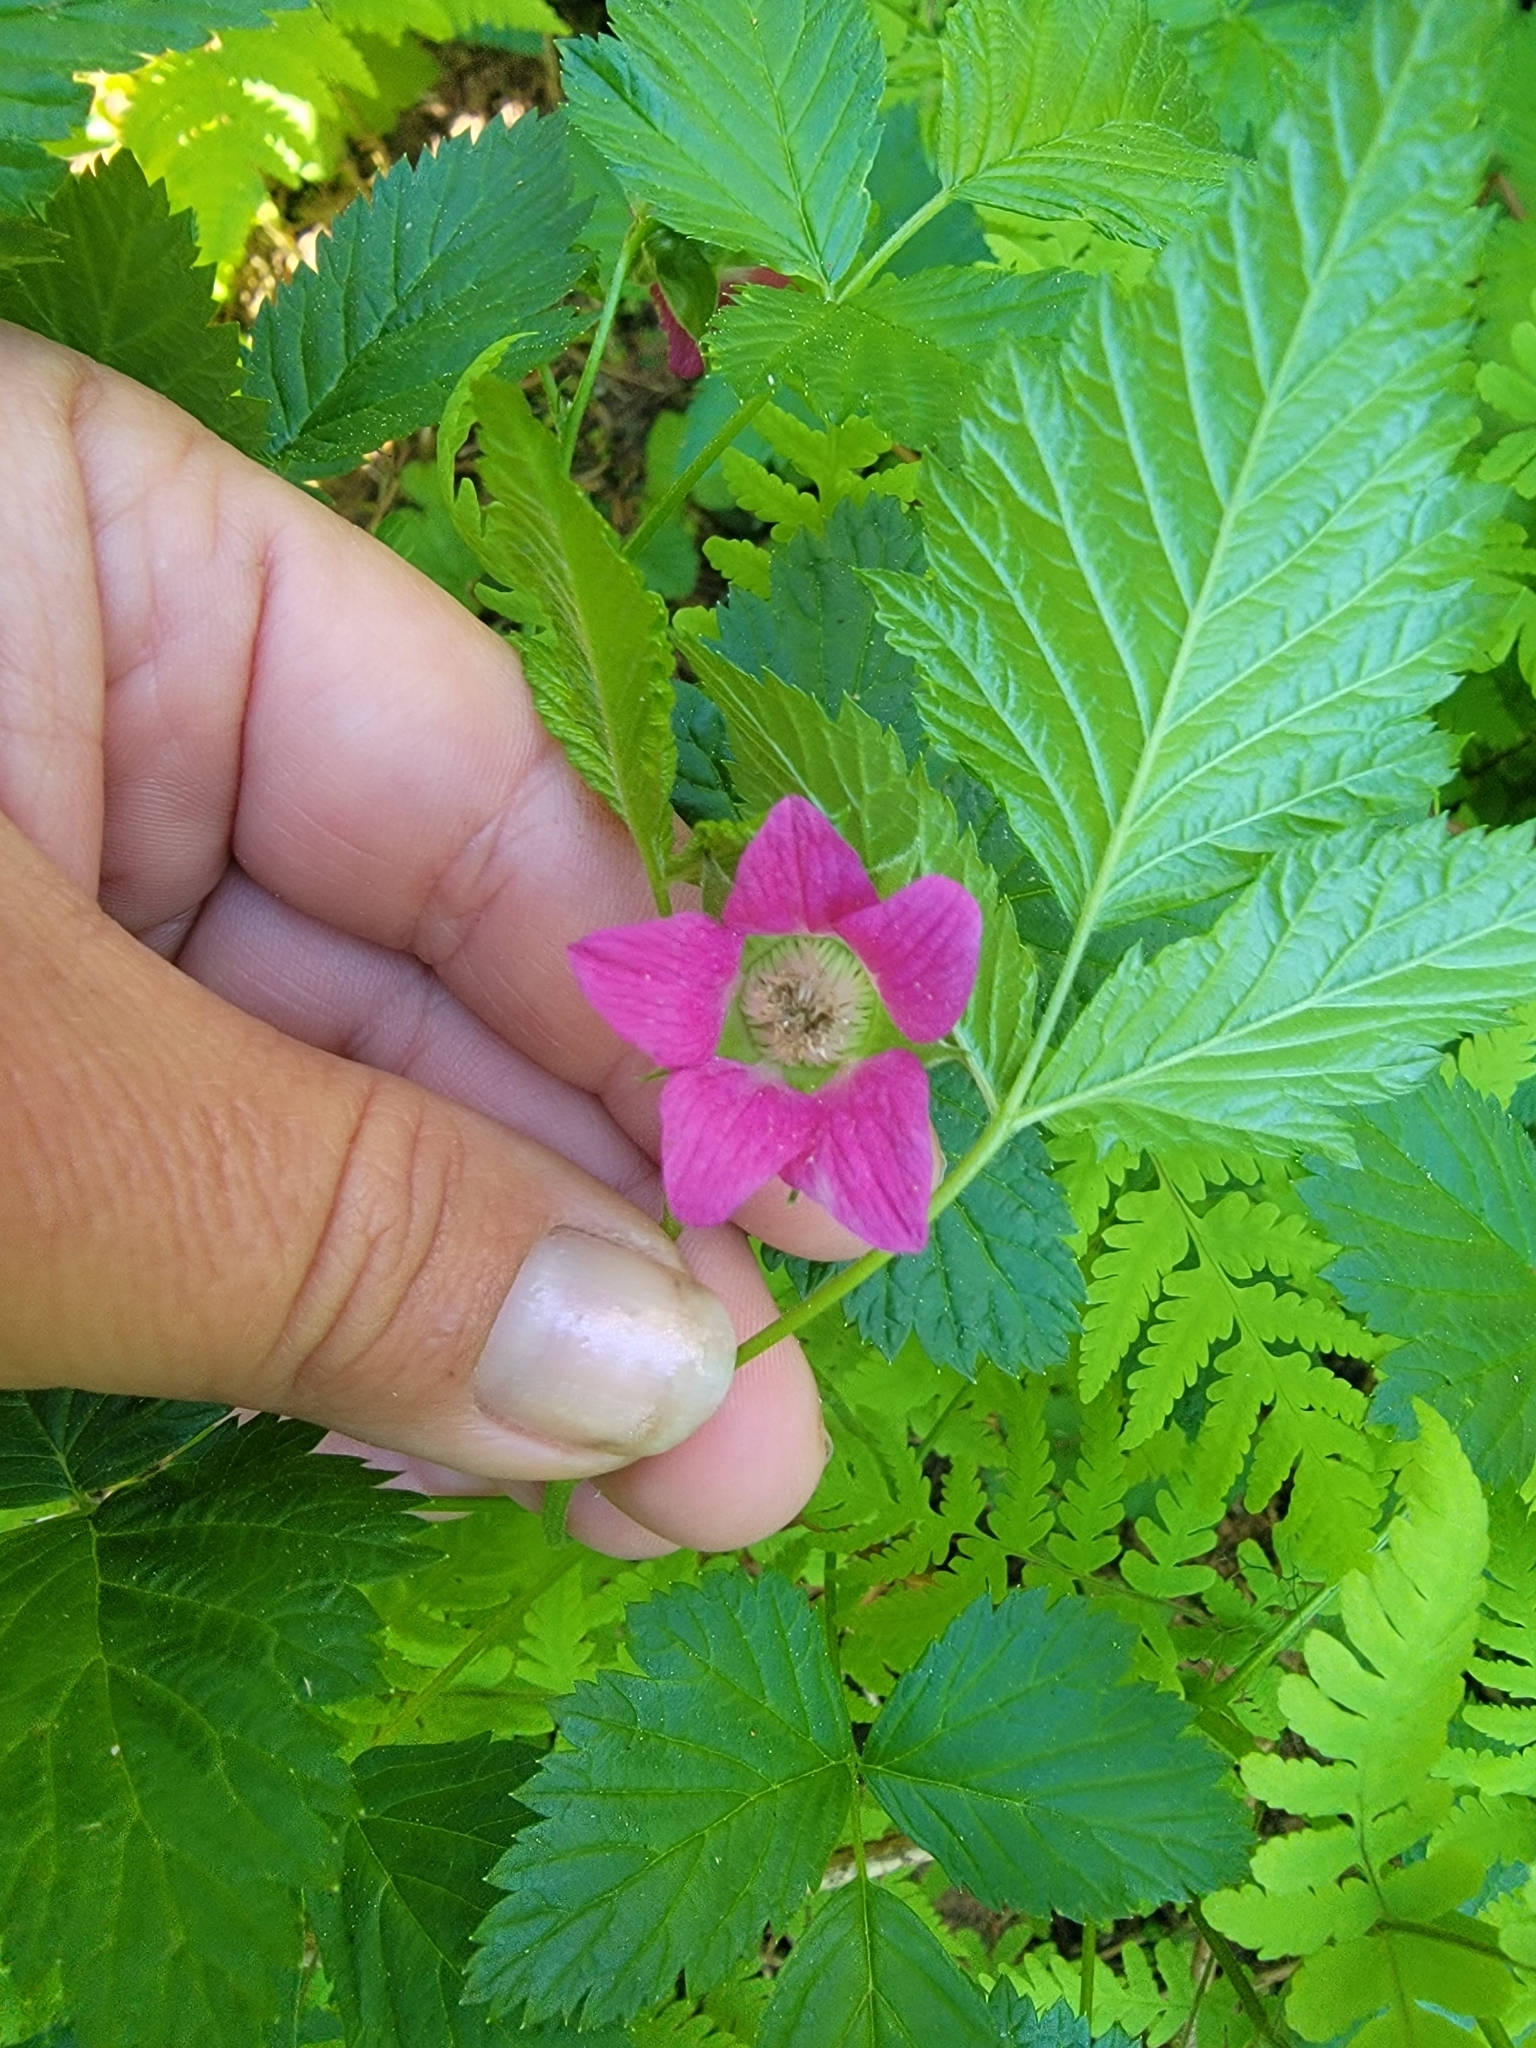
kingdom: Plantae
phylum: Tracheophyta
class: Magnoliopsida
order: Rosales
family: Rosaceae
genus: Rubus
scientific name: Rubus spectabilis
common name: Salmonberry
